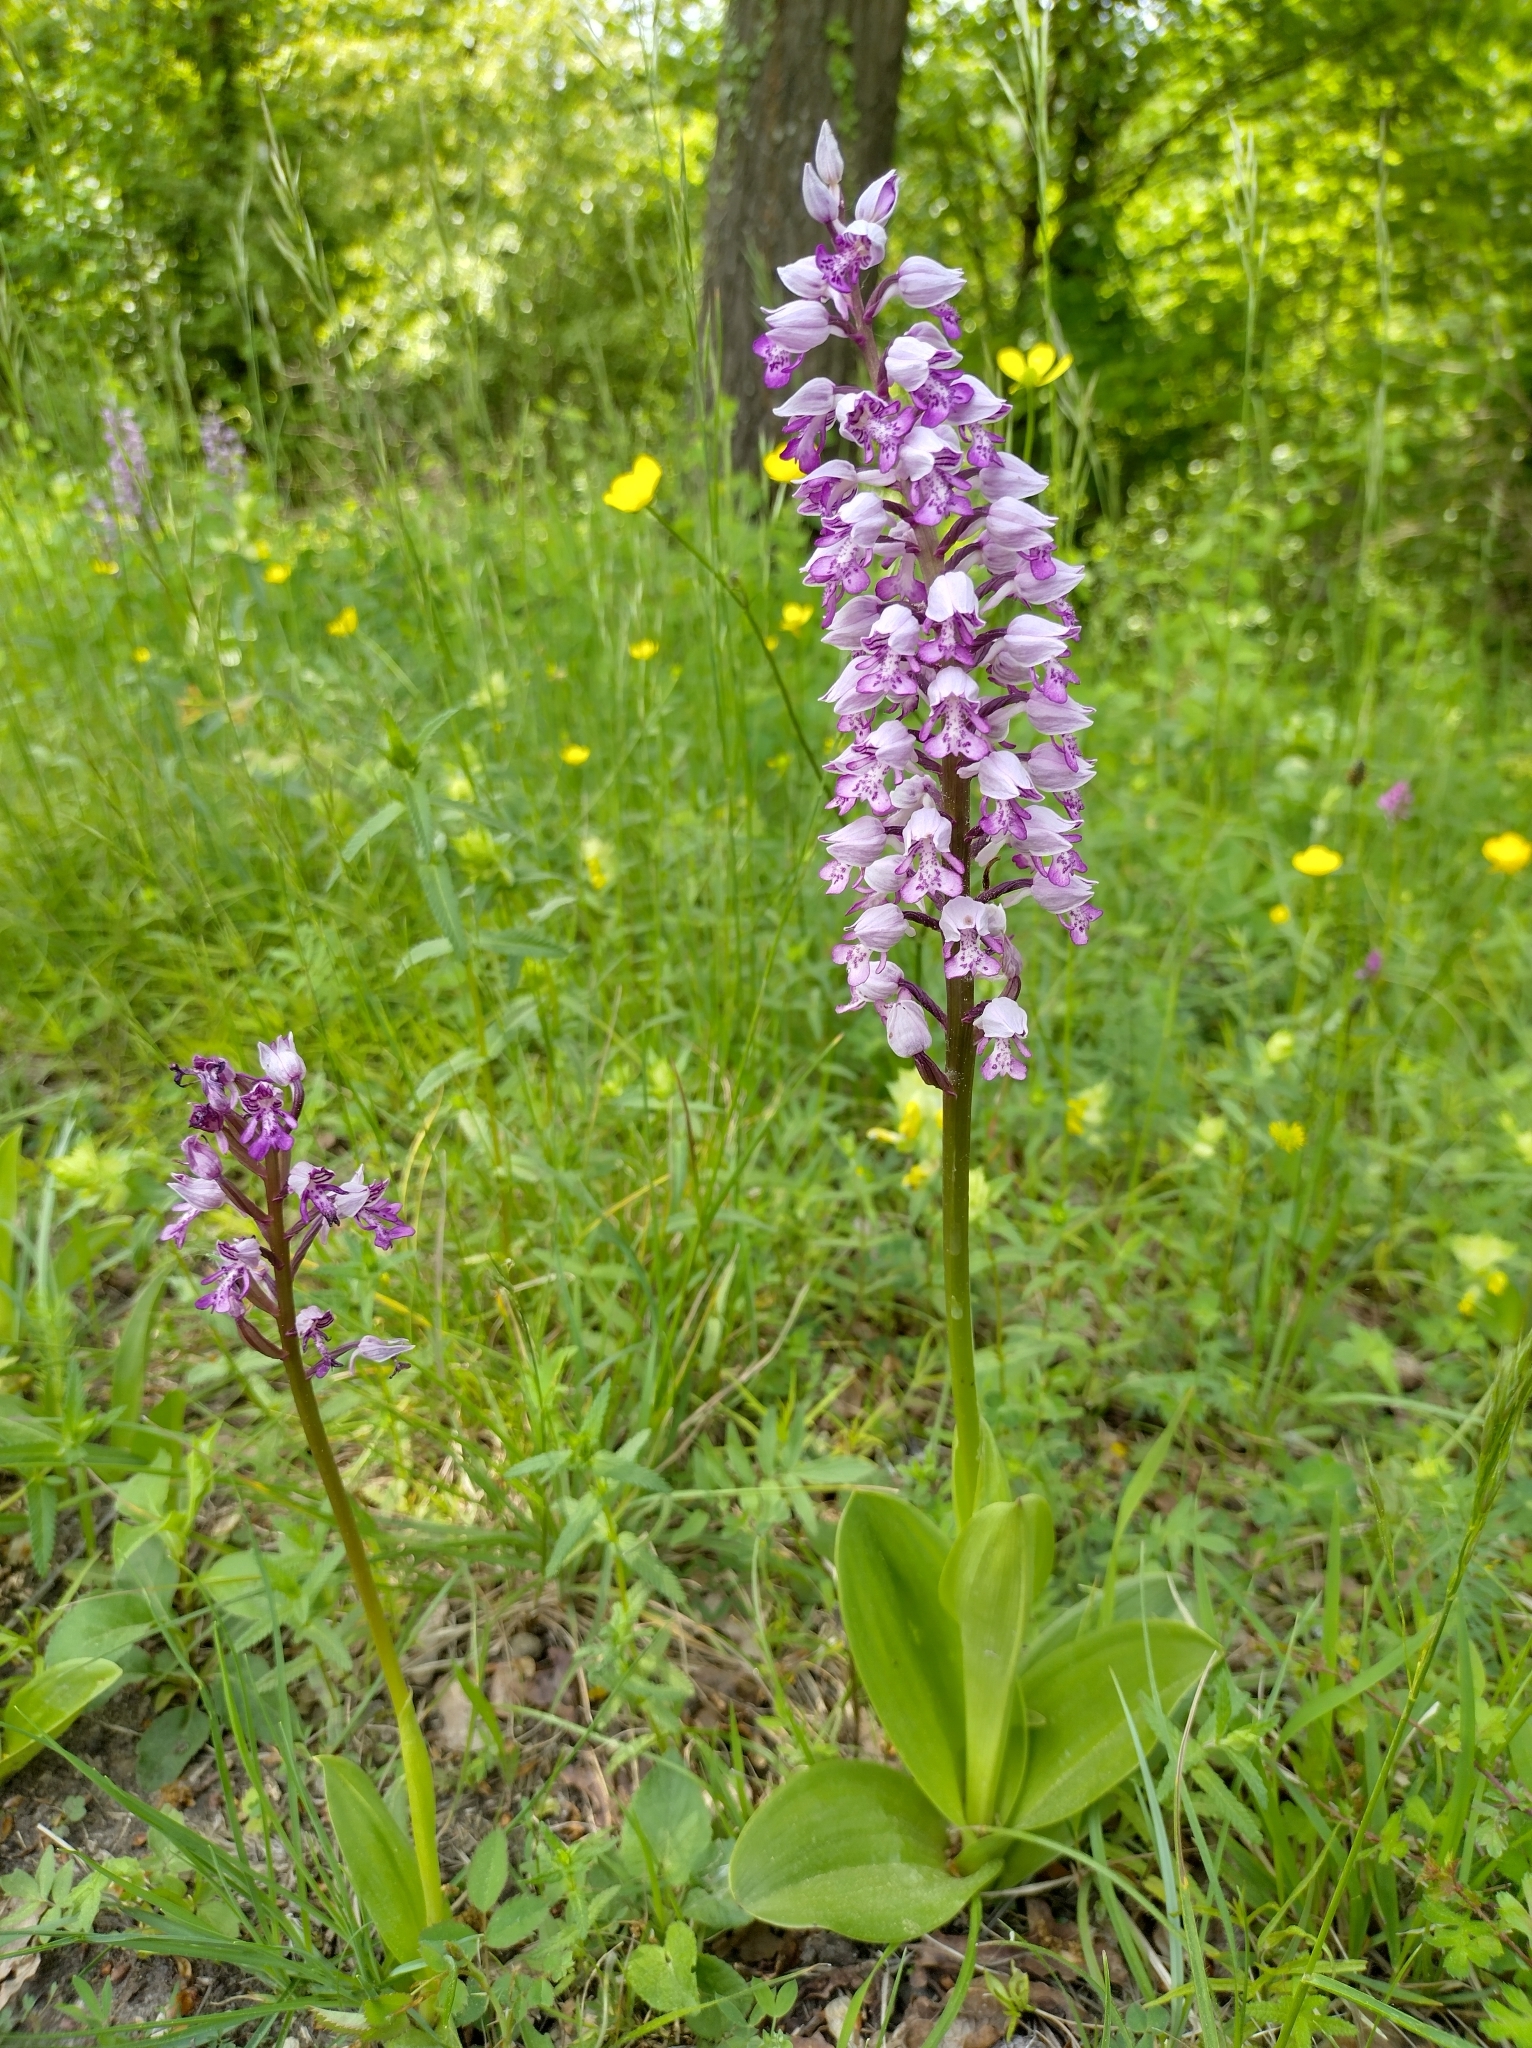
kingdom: Plantae
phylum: Tracheophyta
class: Liliopsida
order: Asparagales
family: Orchidaceae
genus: Orchis
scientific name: Orchis militaris
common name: Military orchid
